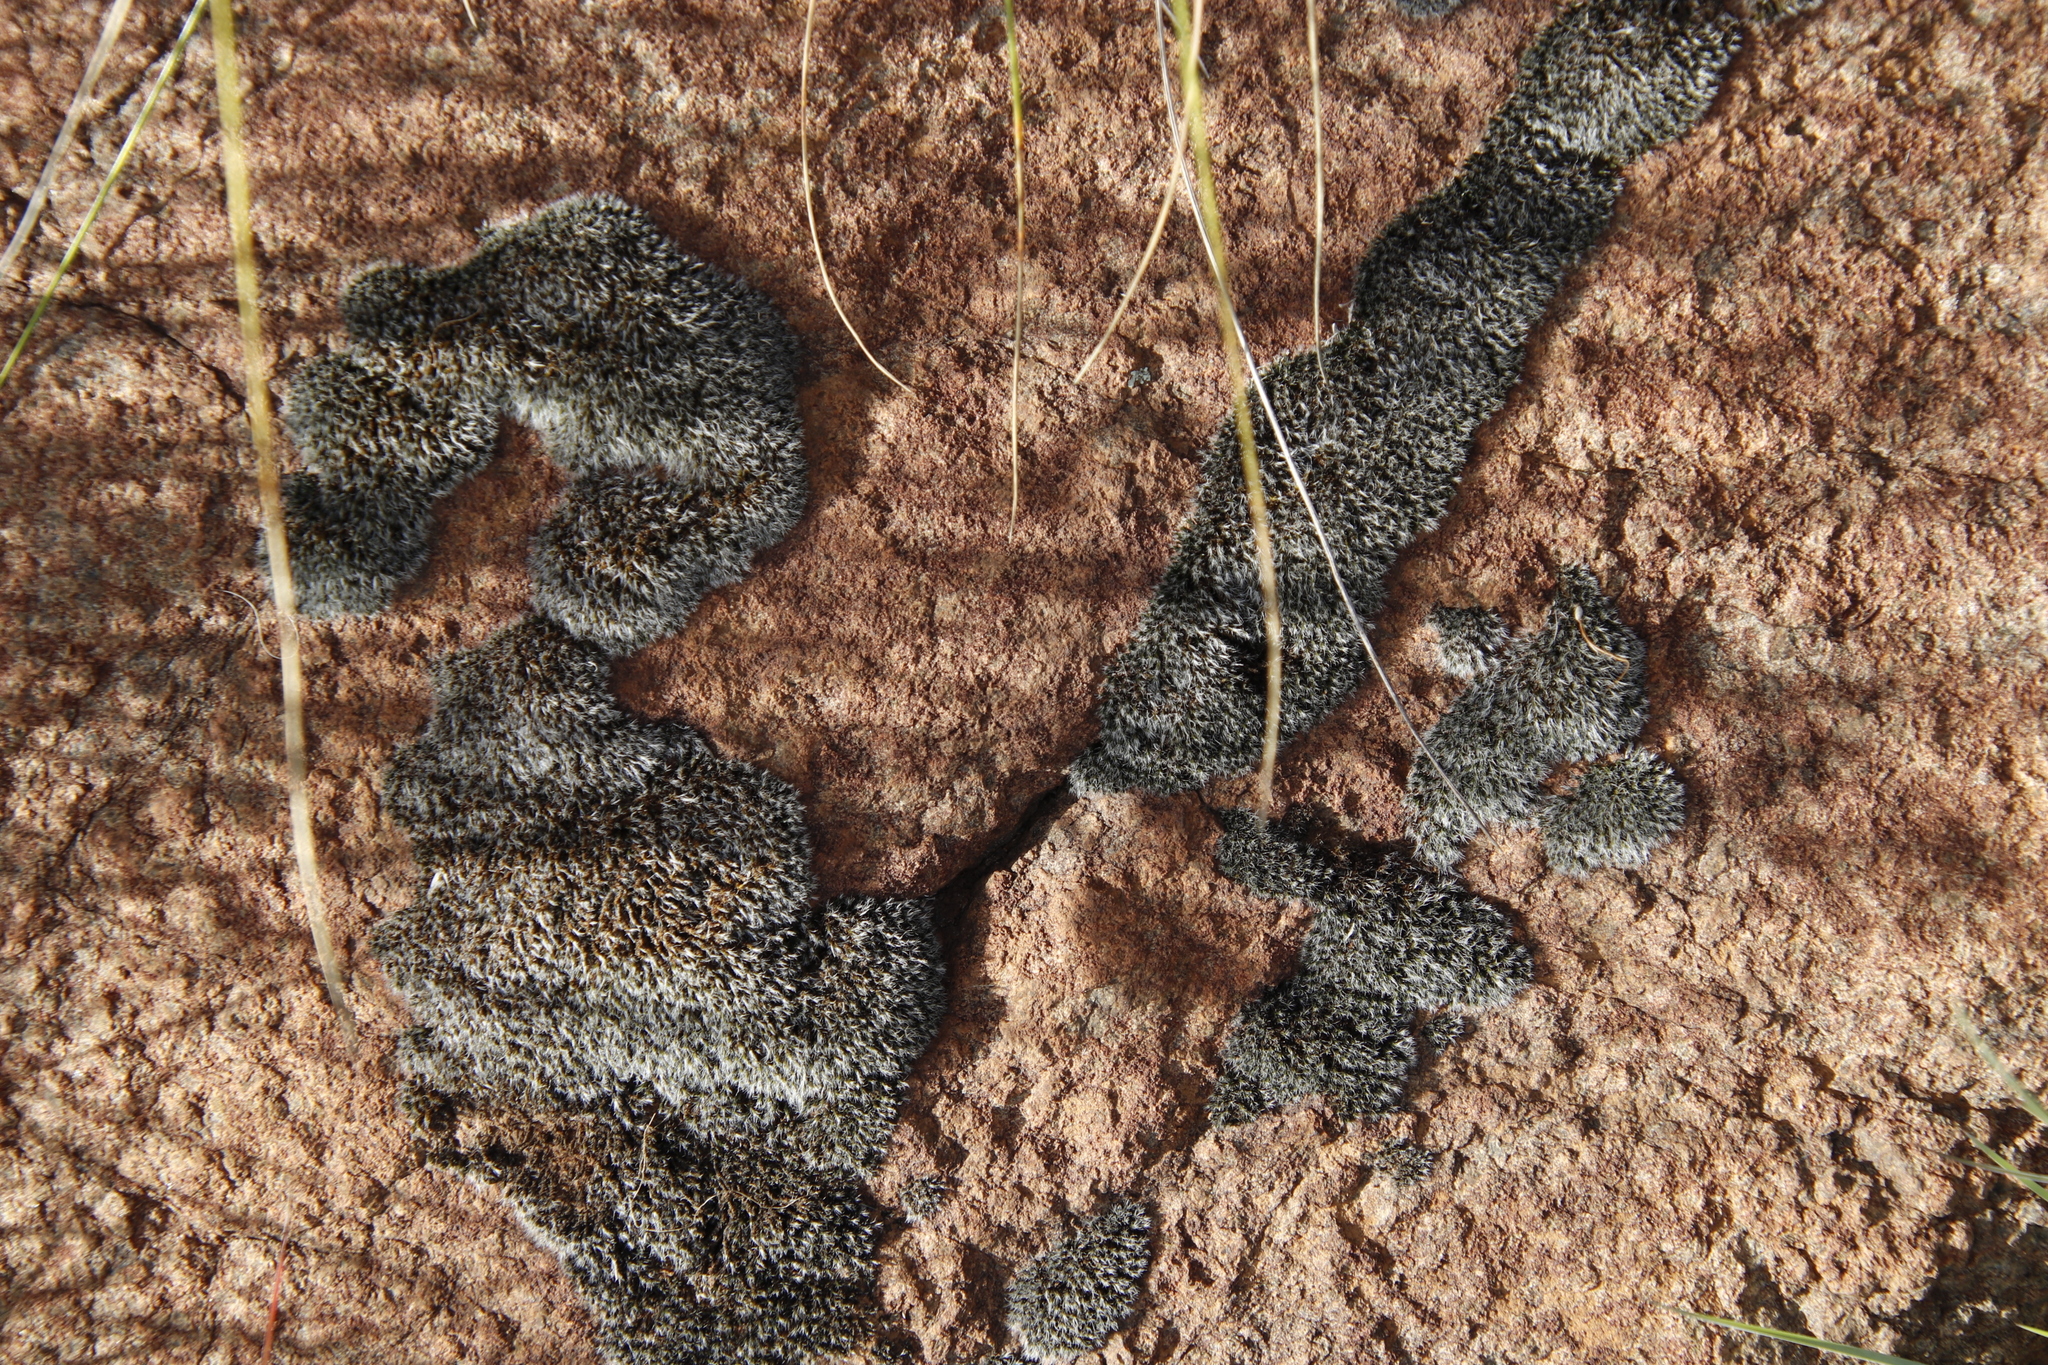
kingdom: Plantae
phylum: Bryophyta
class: Bryopsida
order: Grimmiales
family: Grimmiaceae
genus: Grimmia
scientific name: Grimmia laevigata
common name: Hoary grimmia
